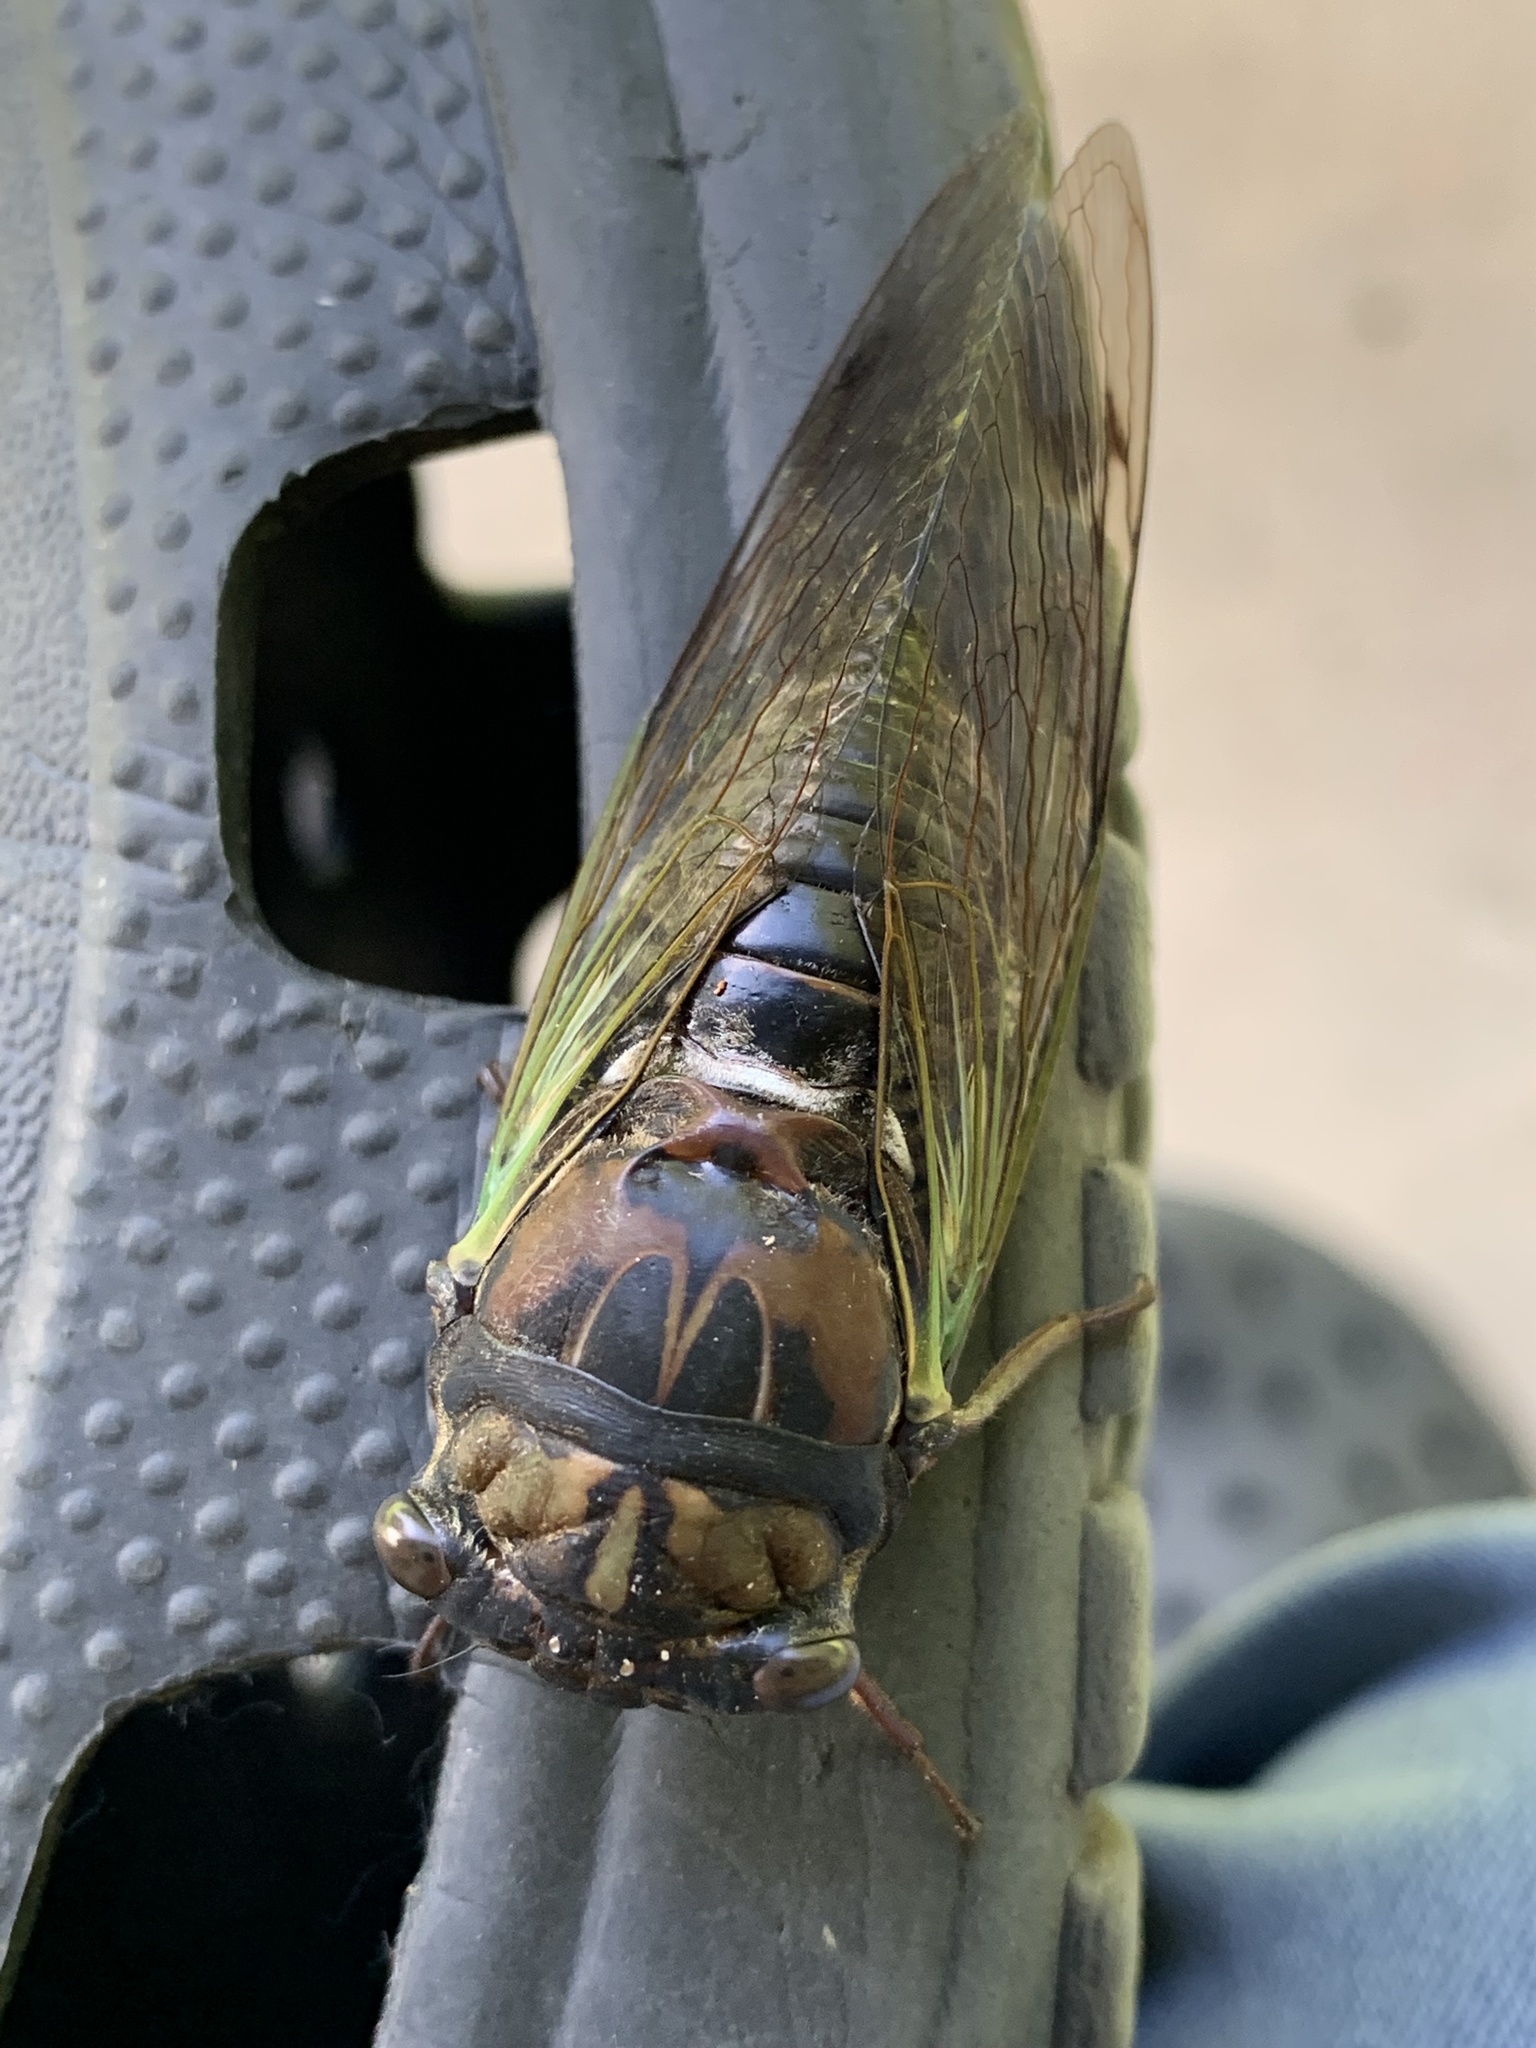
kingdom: Animalia
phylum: Arthropoda
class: Insecta
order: Hemiptera
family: Cicadidae
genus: Neotibicen
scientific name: Neotibicen lyricen
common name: Lyric cicada
